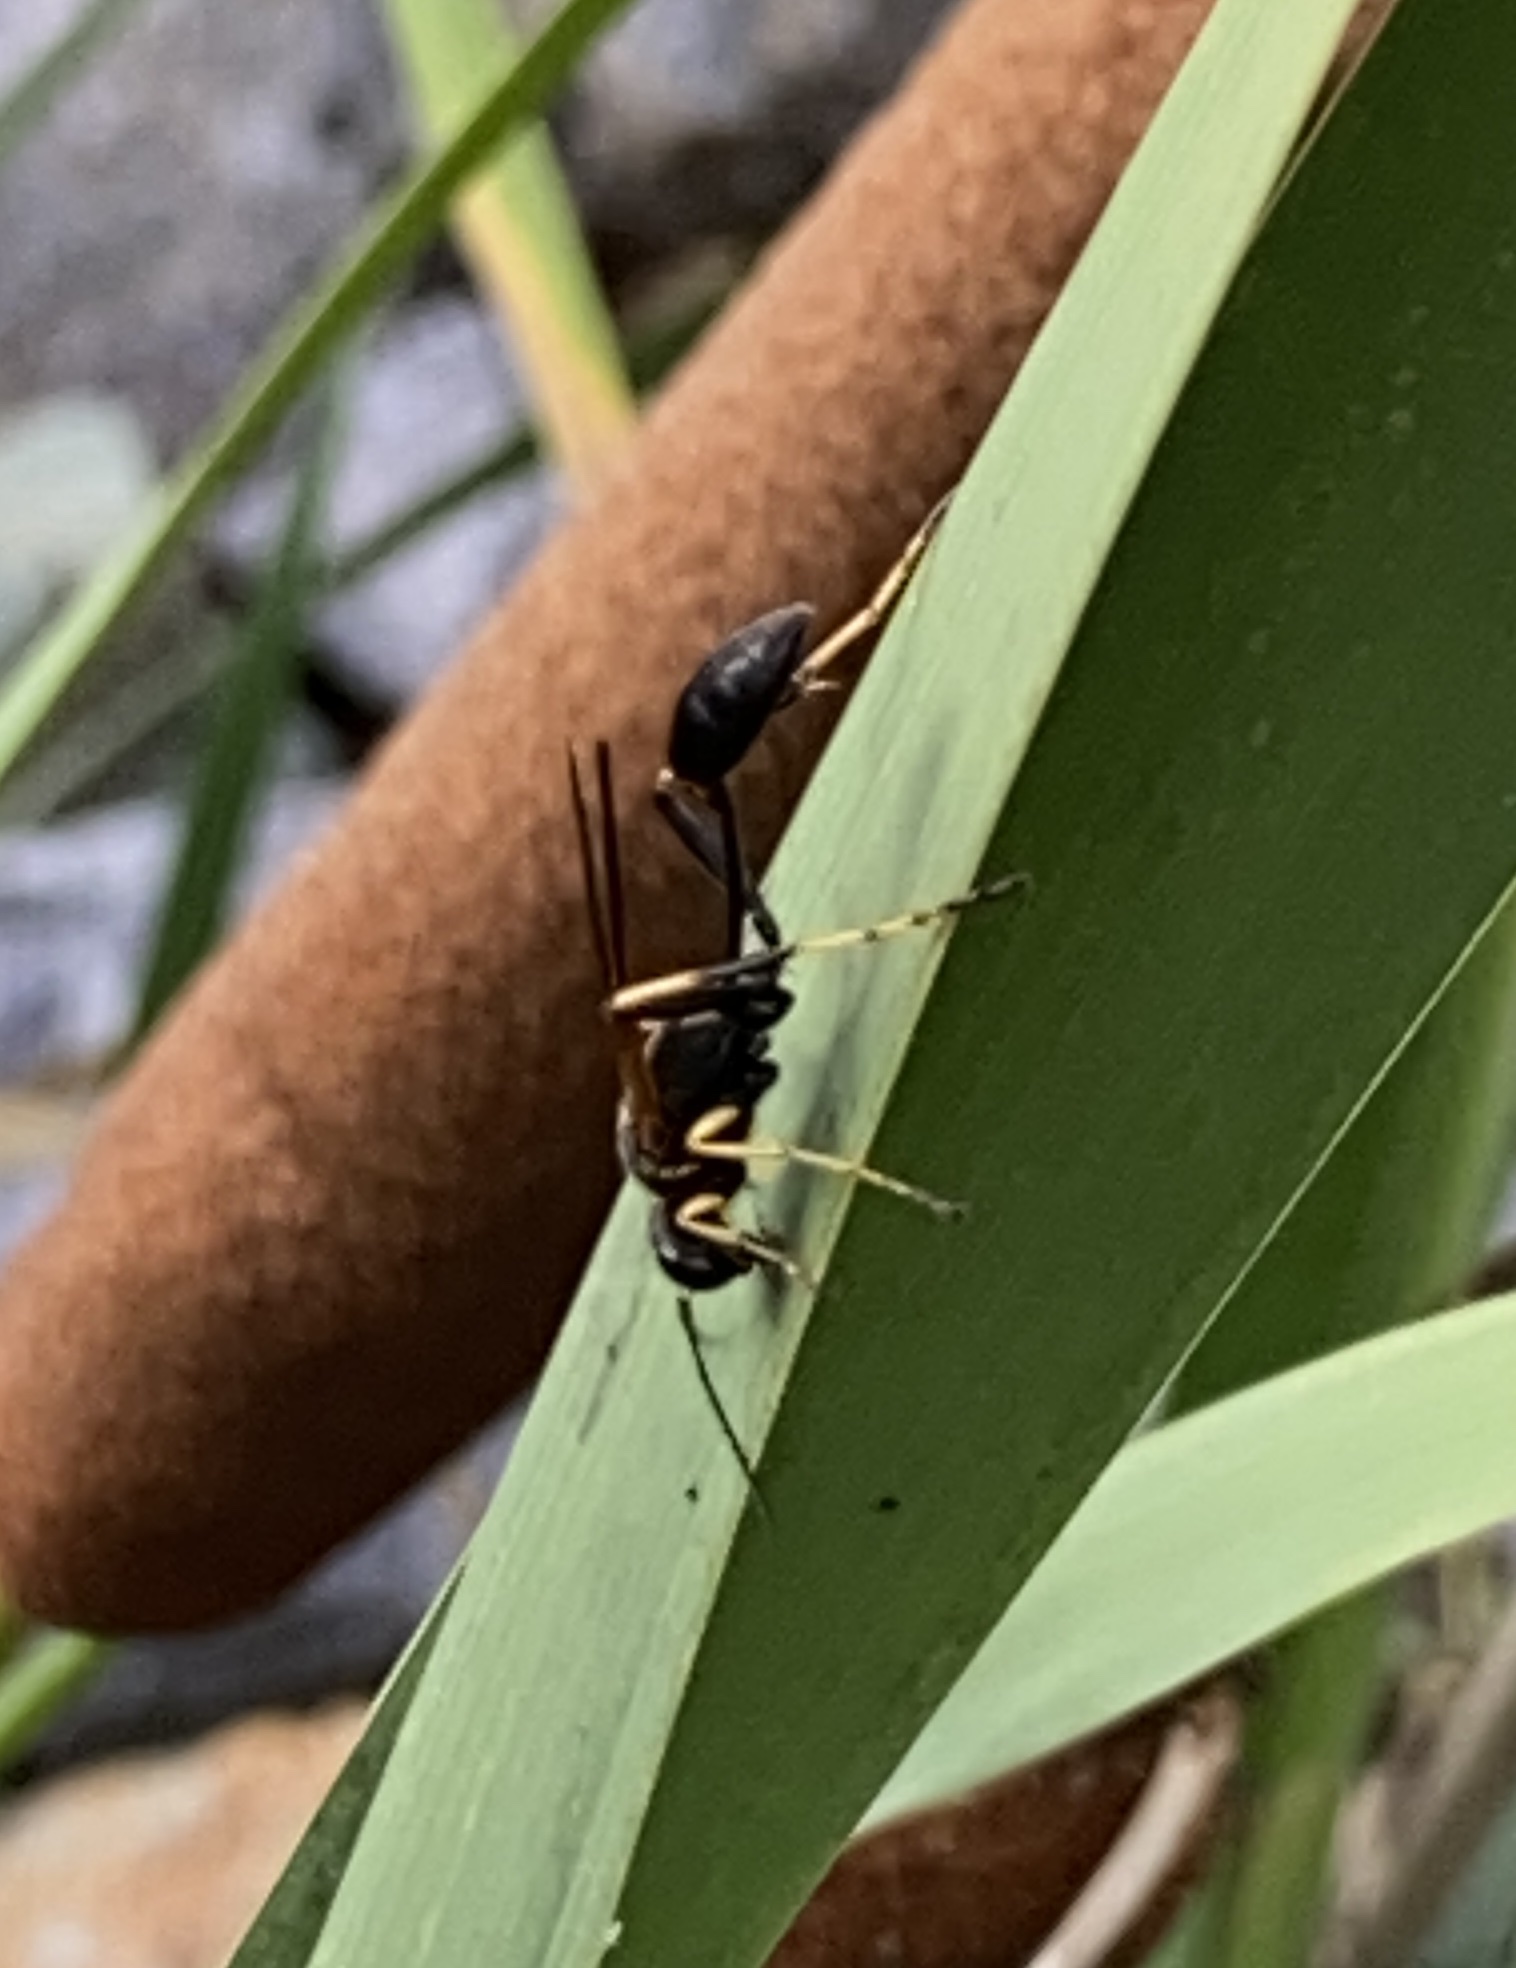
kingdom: Animalia
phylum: Arthropoda
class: Insecta
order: Hymenoptera
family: Sphecidae
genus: Sceliphron
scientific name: Sceliphron caementarium
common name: Mud dauber
